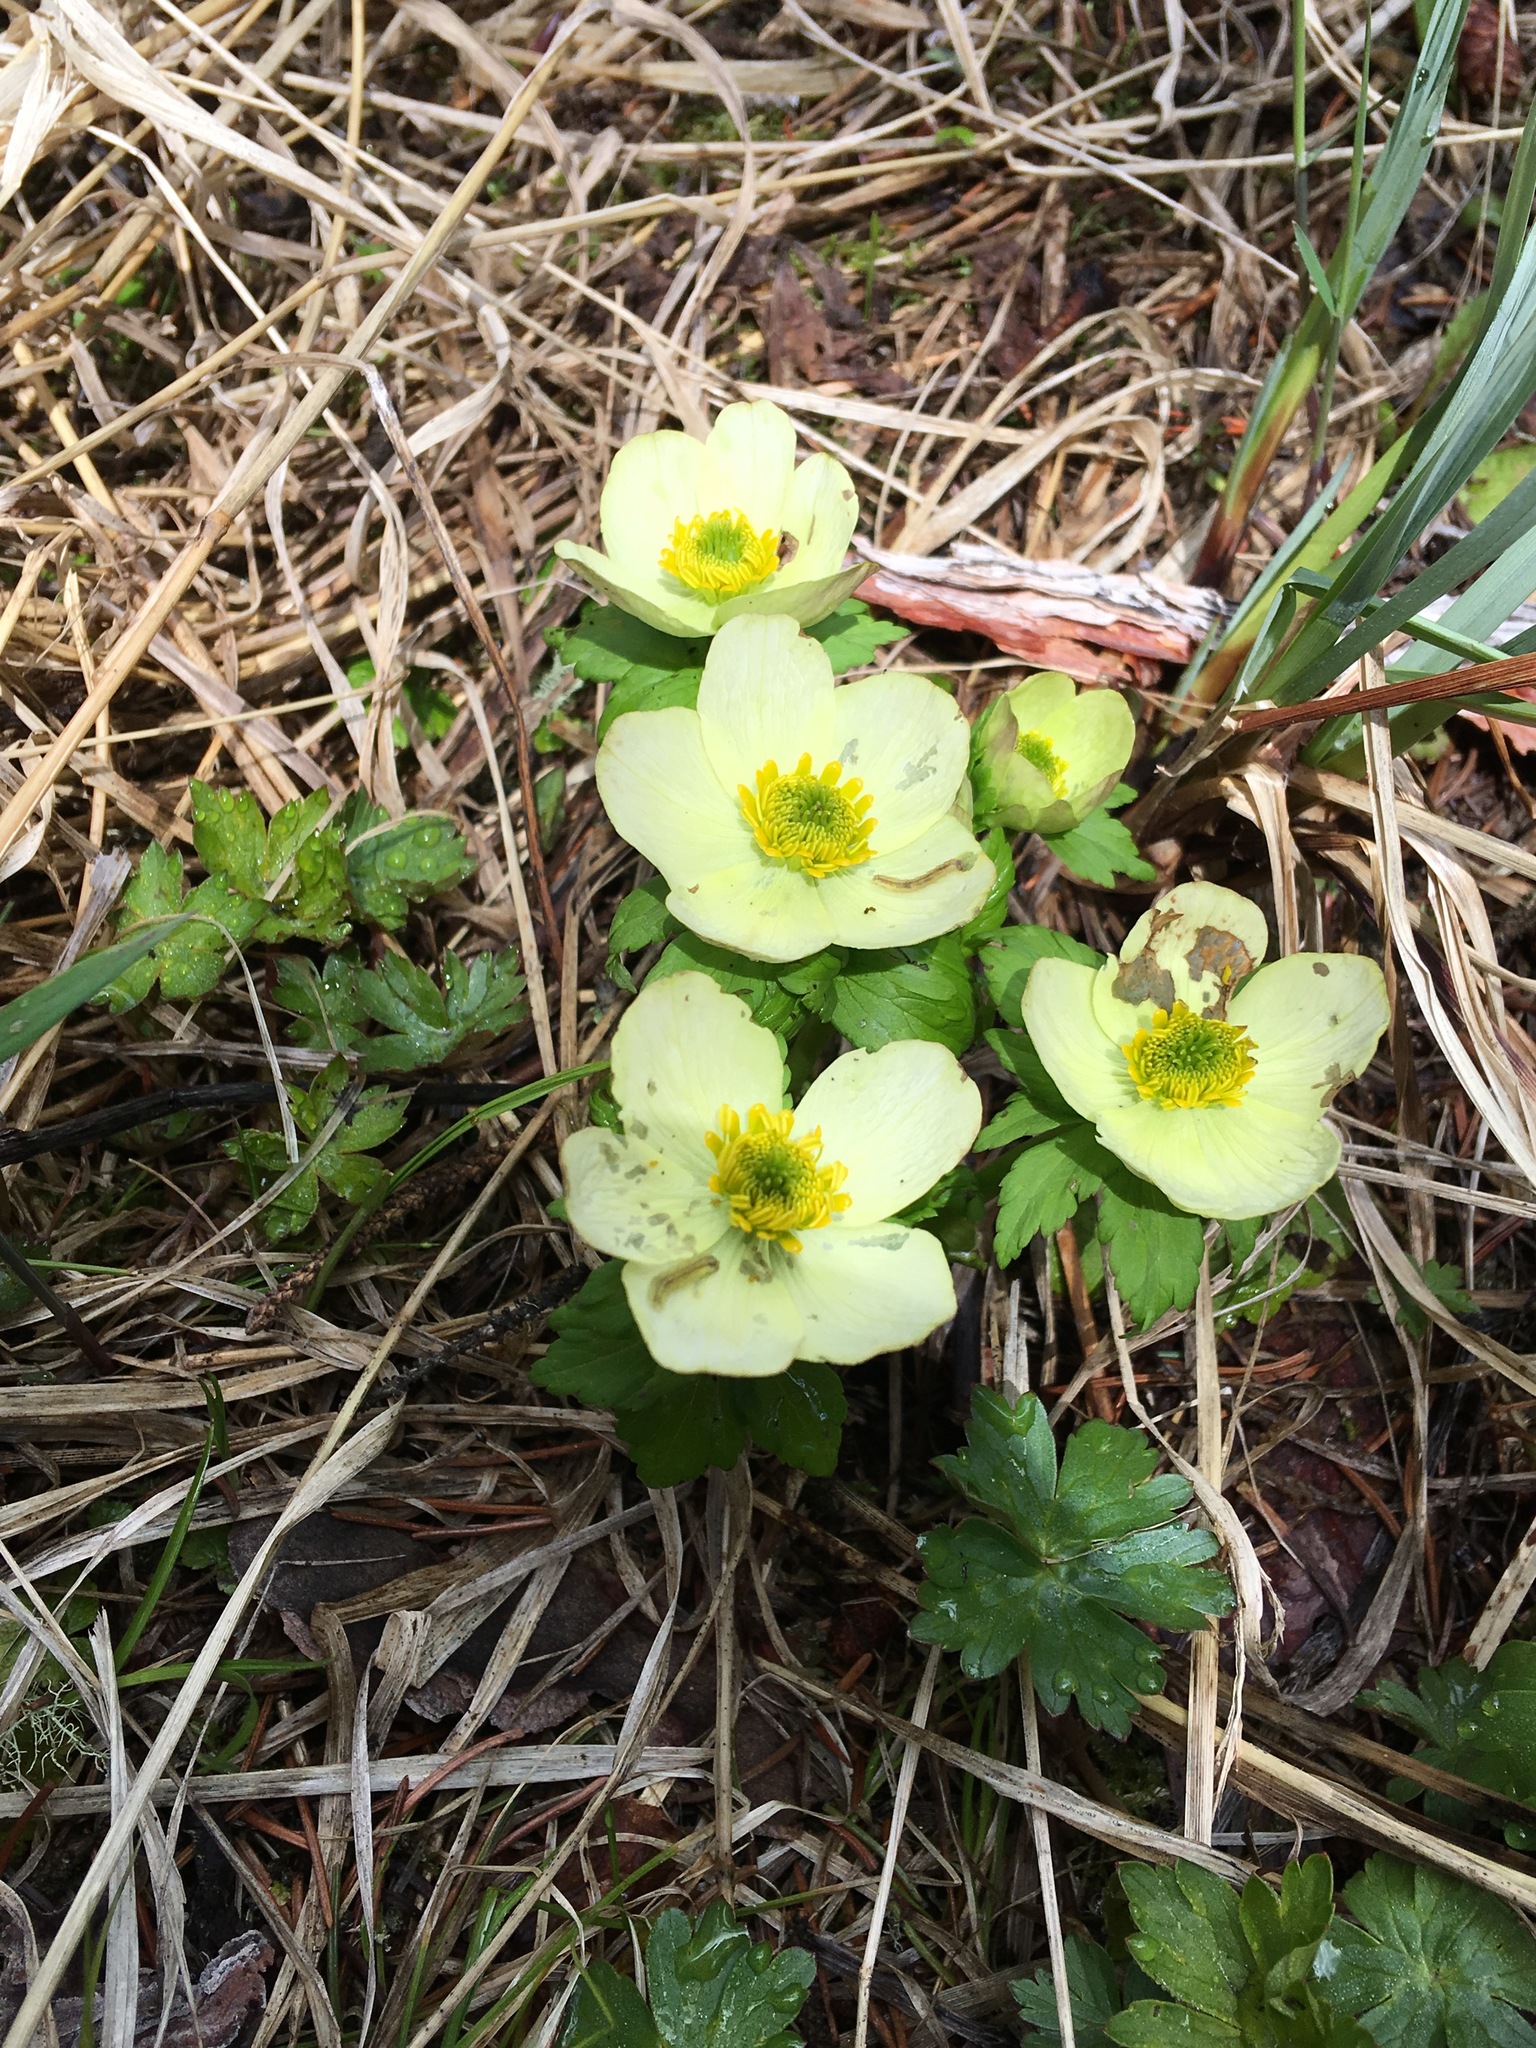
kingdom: Plantae
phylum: Tracheophyta
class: Magnoliopsida
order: Ranunculales
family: Ranunculaceae
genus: Trollius
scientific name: Trollius laxus
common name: American globeflower
